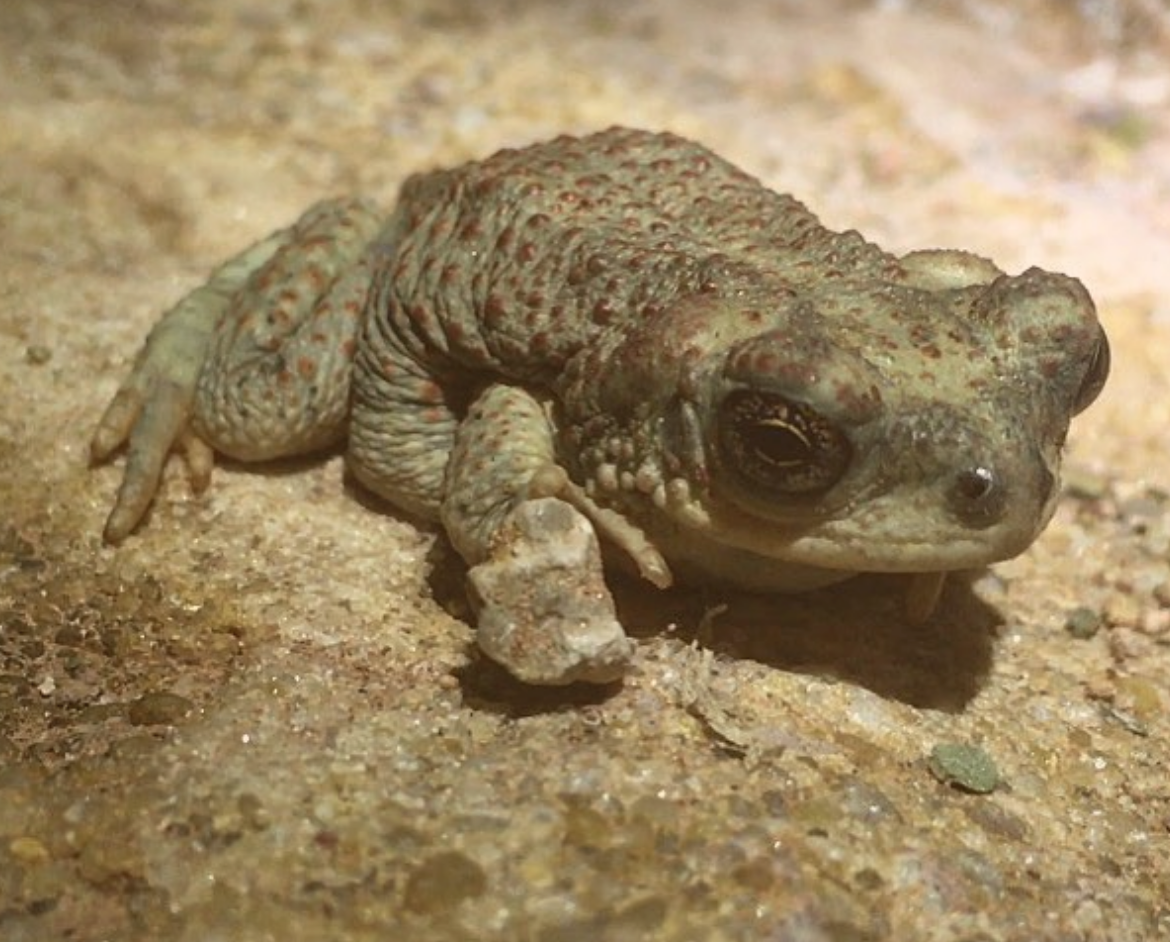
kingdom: Animalia
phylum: Chordata
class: Amphibia
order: Anura
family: Bufonidae
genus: Anaxyrus
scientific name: Anaxyrus punctatus
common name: Red-spotted toad
